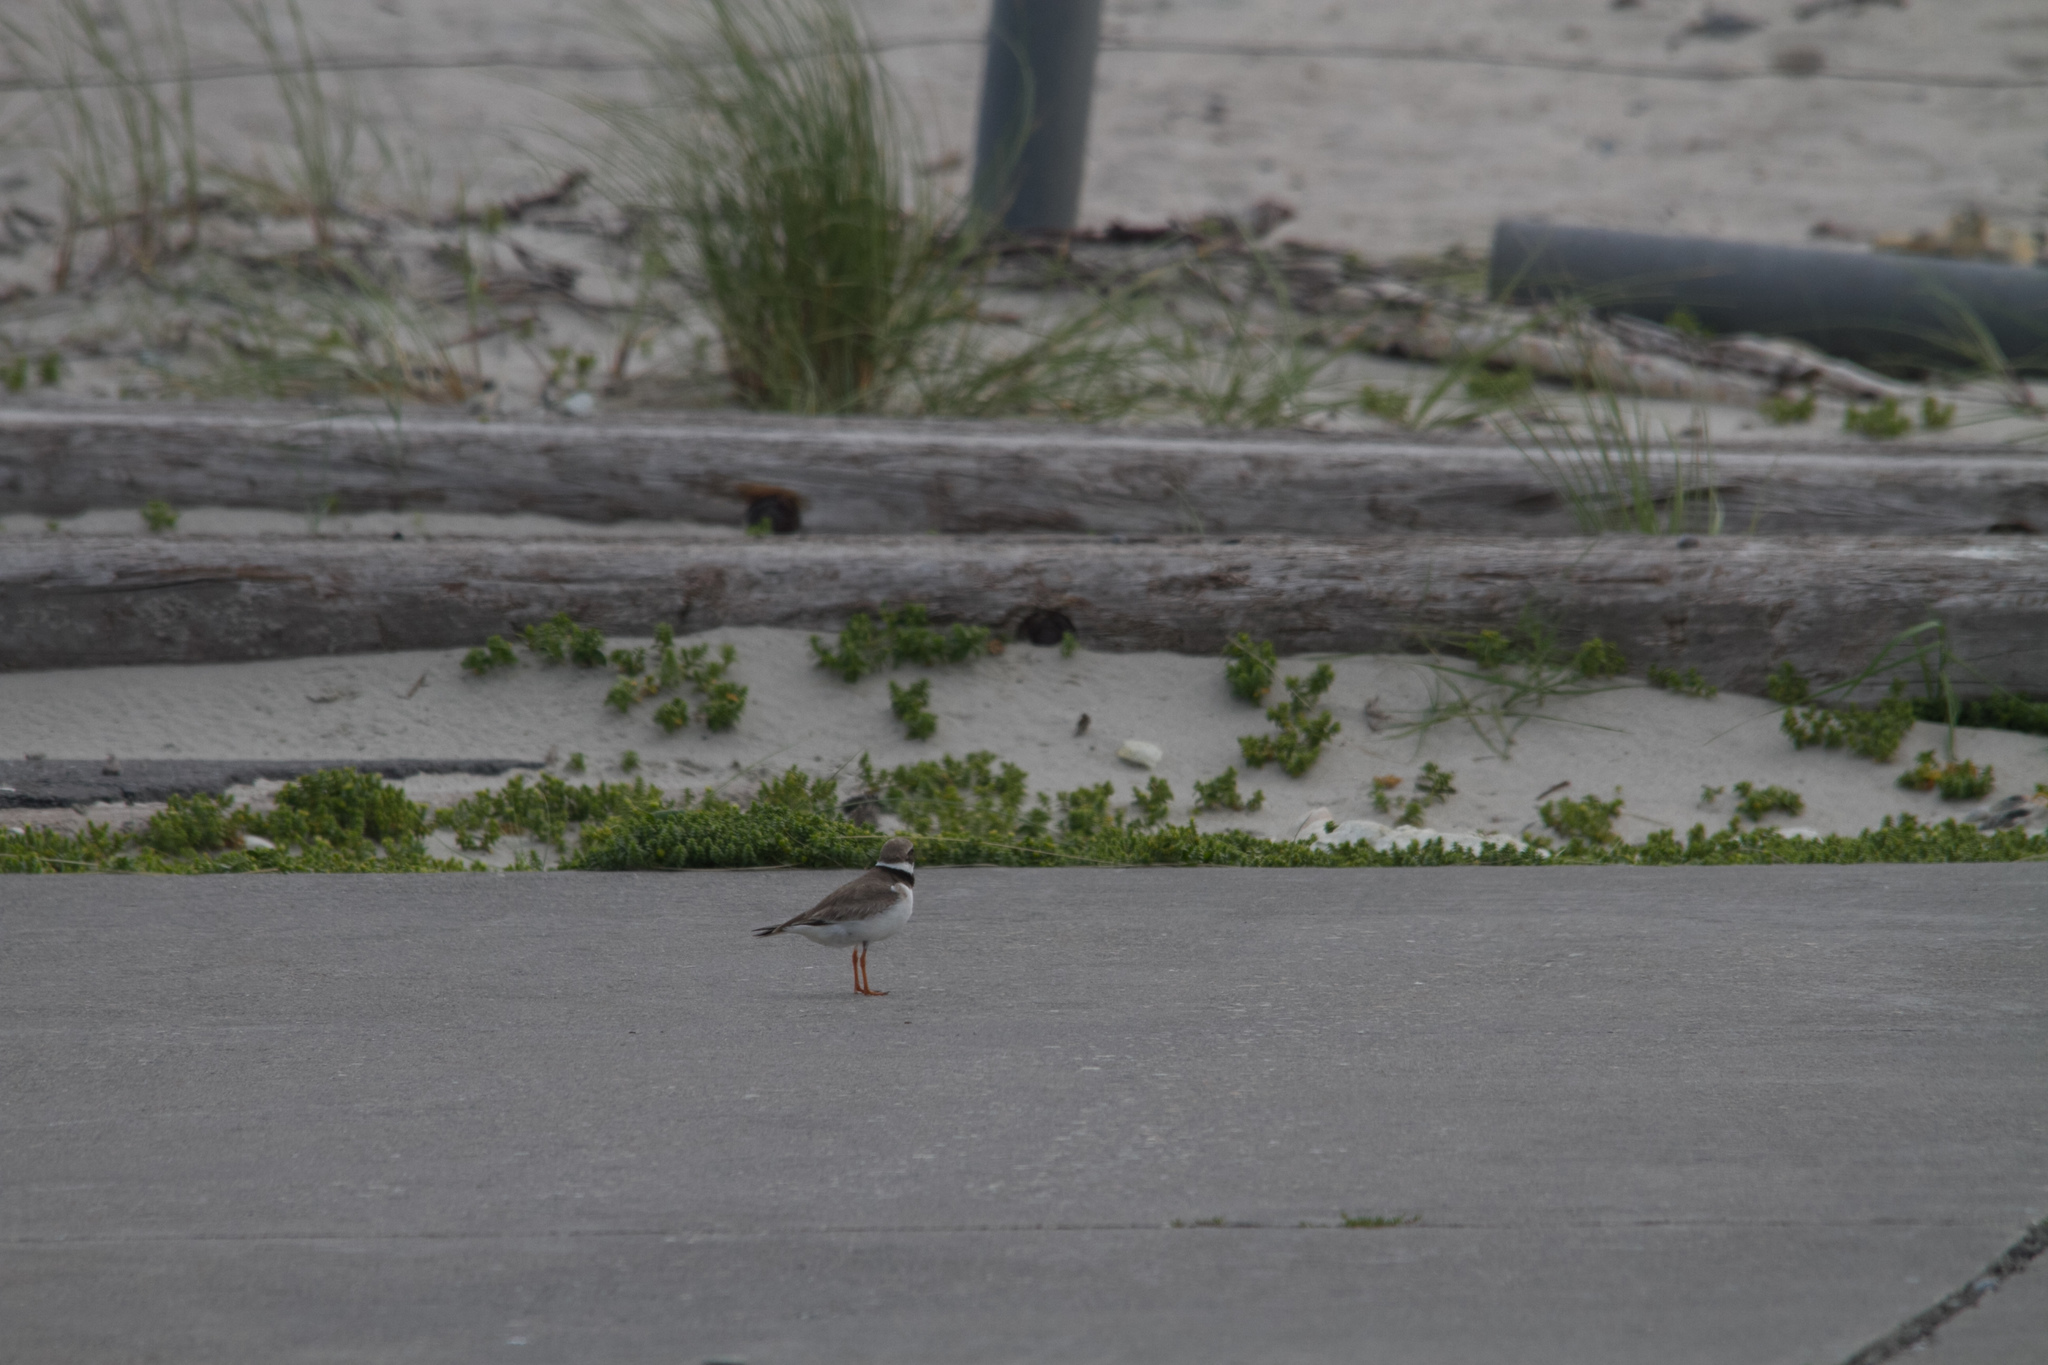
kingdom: Animalia
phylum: Chordata
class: Aves
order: Charadriiformes
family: Charadriidae
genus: Charadrius
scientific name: Charadrius hiaticula
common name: Common ringed plover
